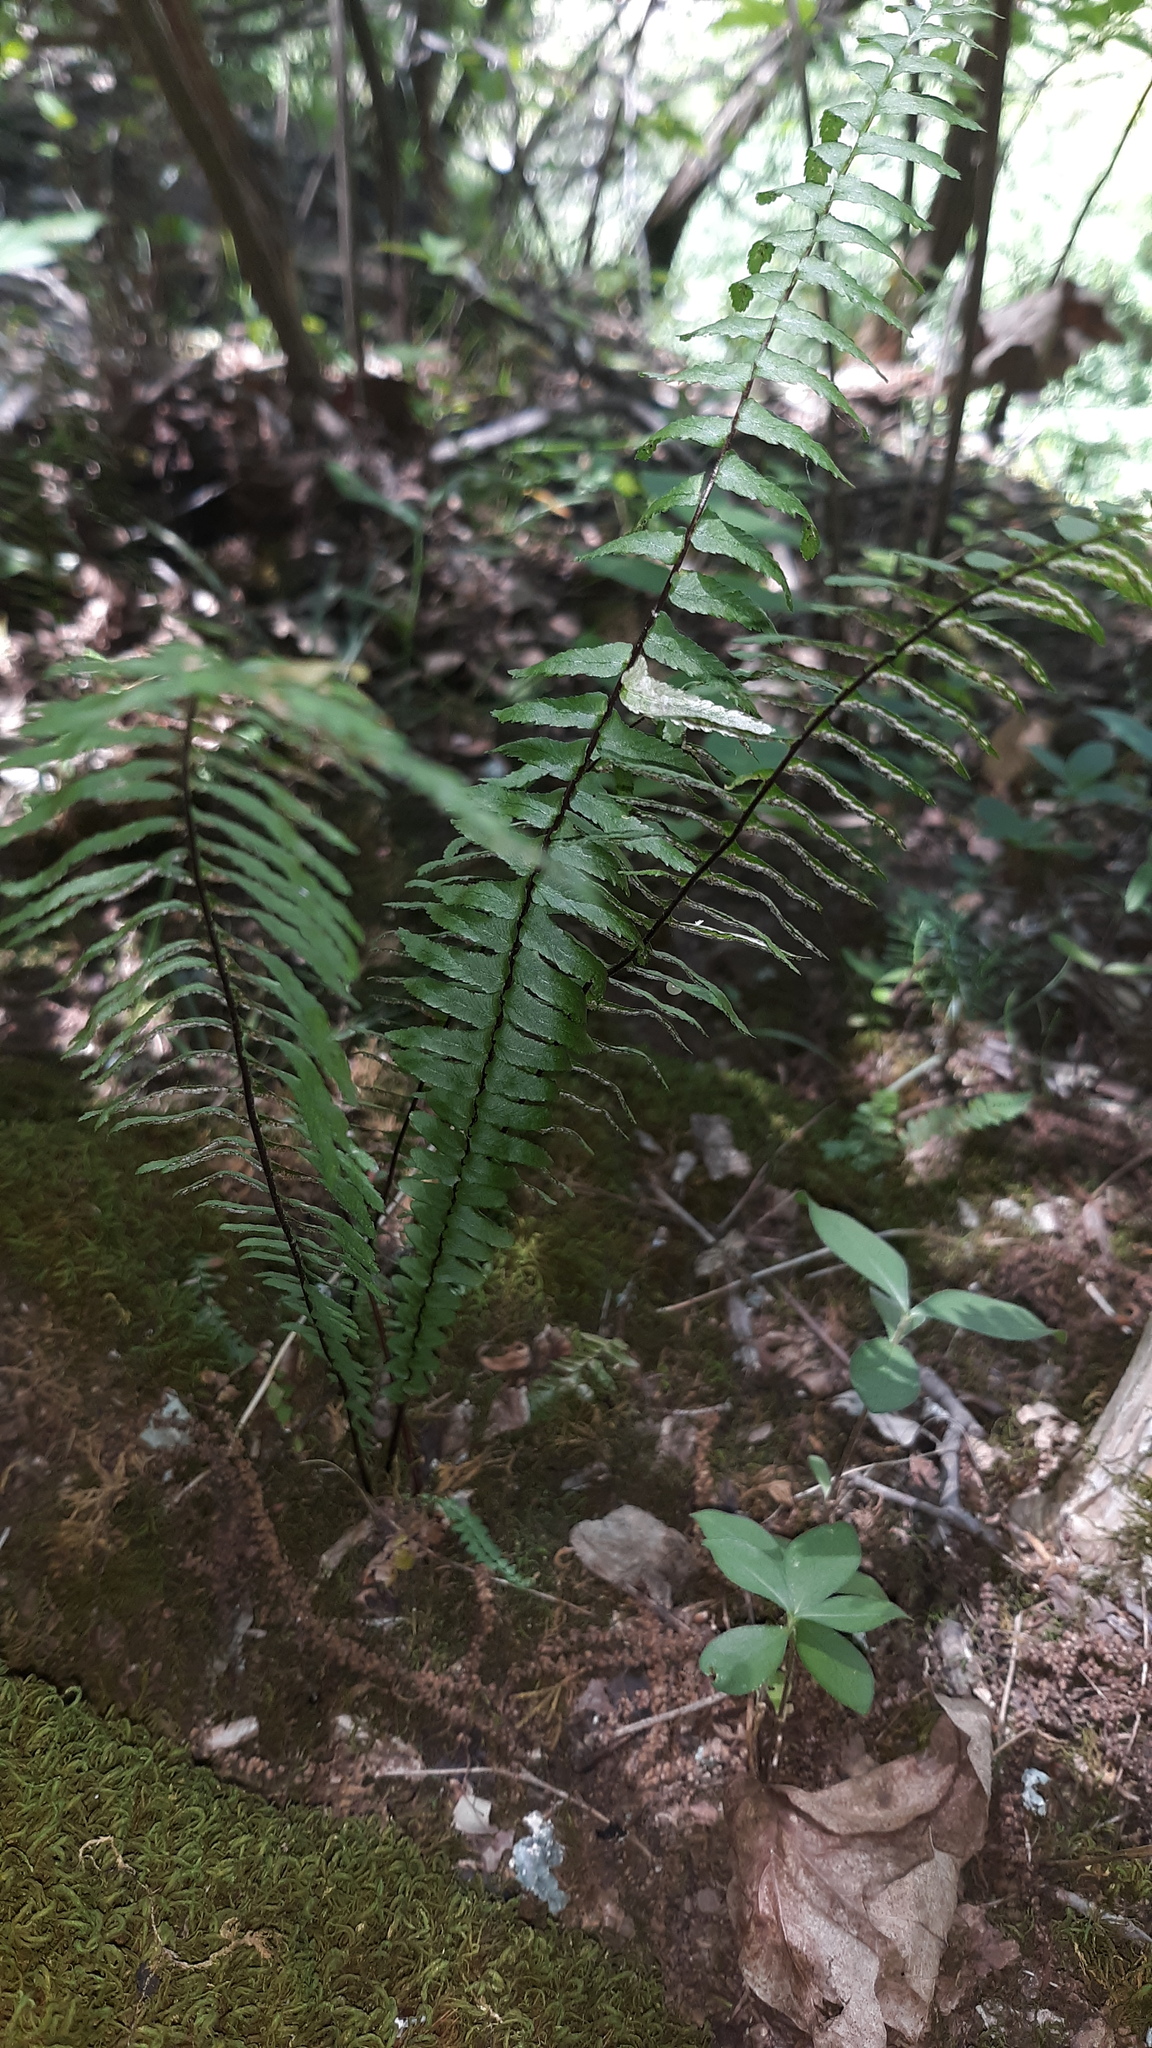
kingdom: Plantae
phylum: Tracheophyta
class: Polypodiopsida
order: Polypodiales
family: Aspleniaceae
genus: Asplenium
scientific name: Asplenium platyneuron
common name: Ebony spleenwort
